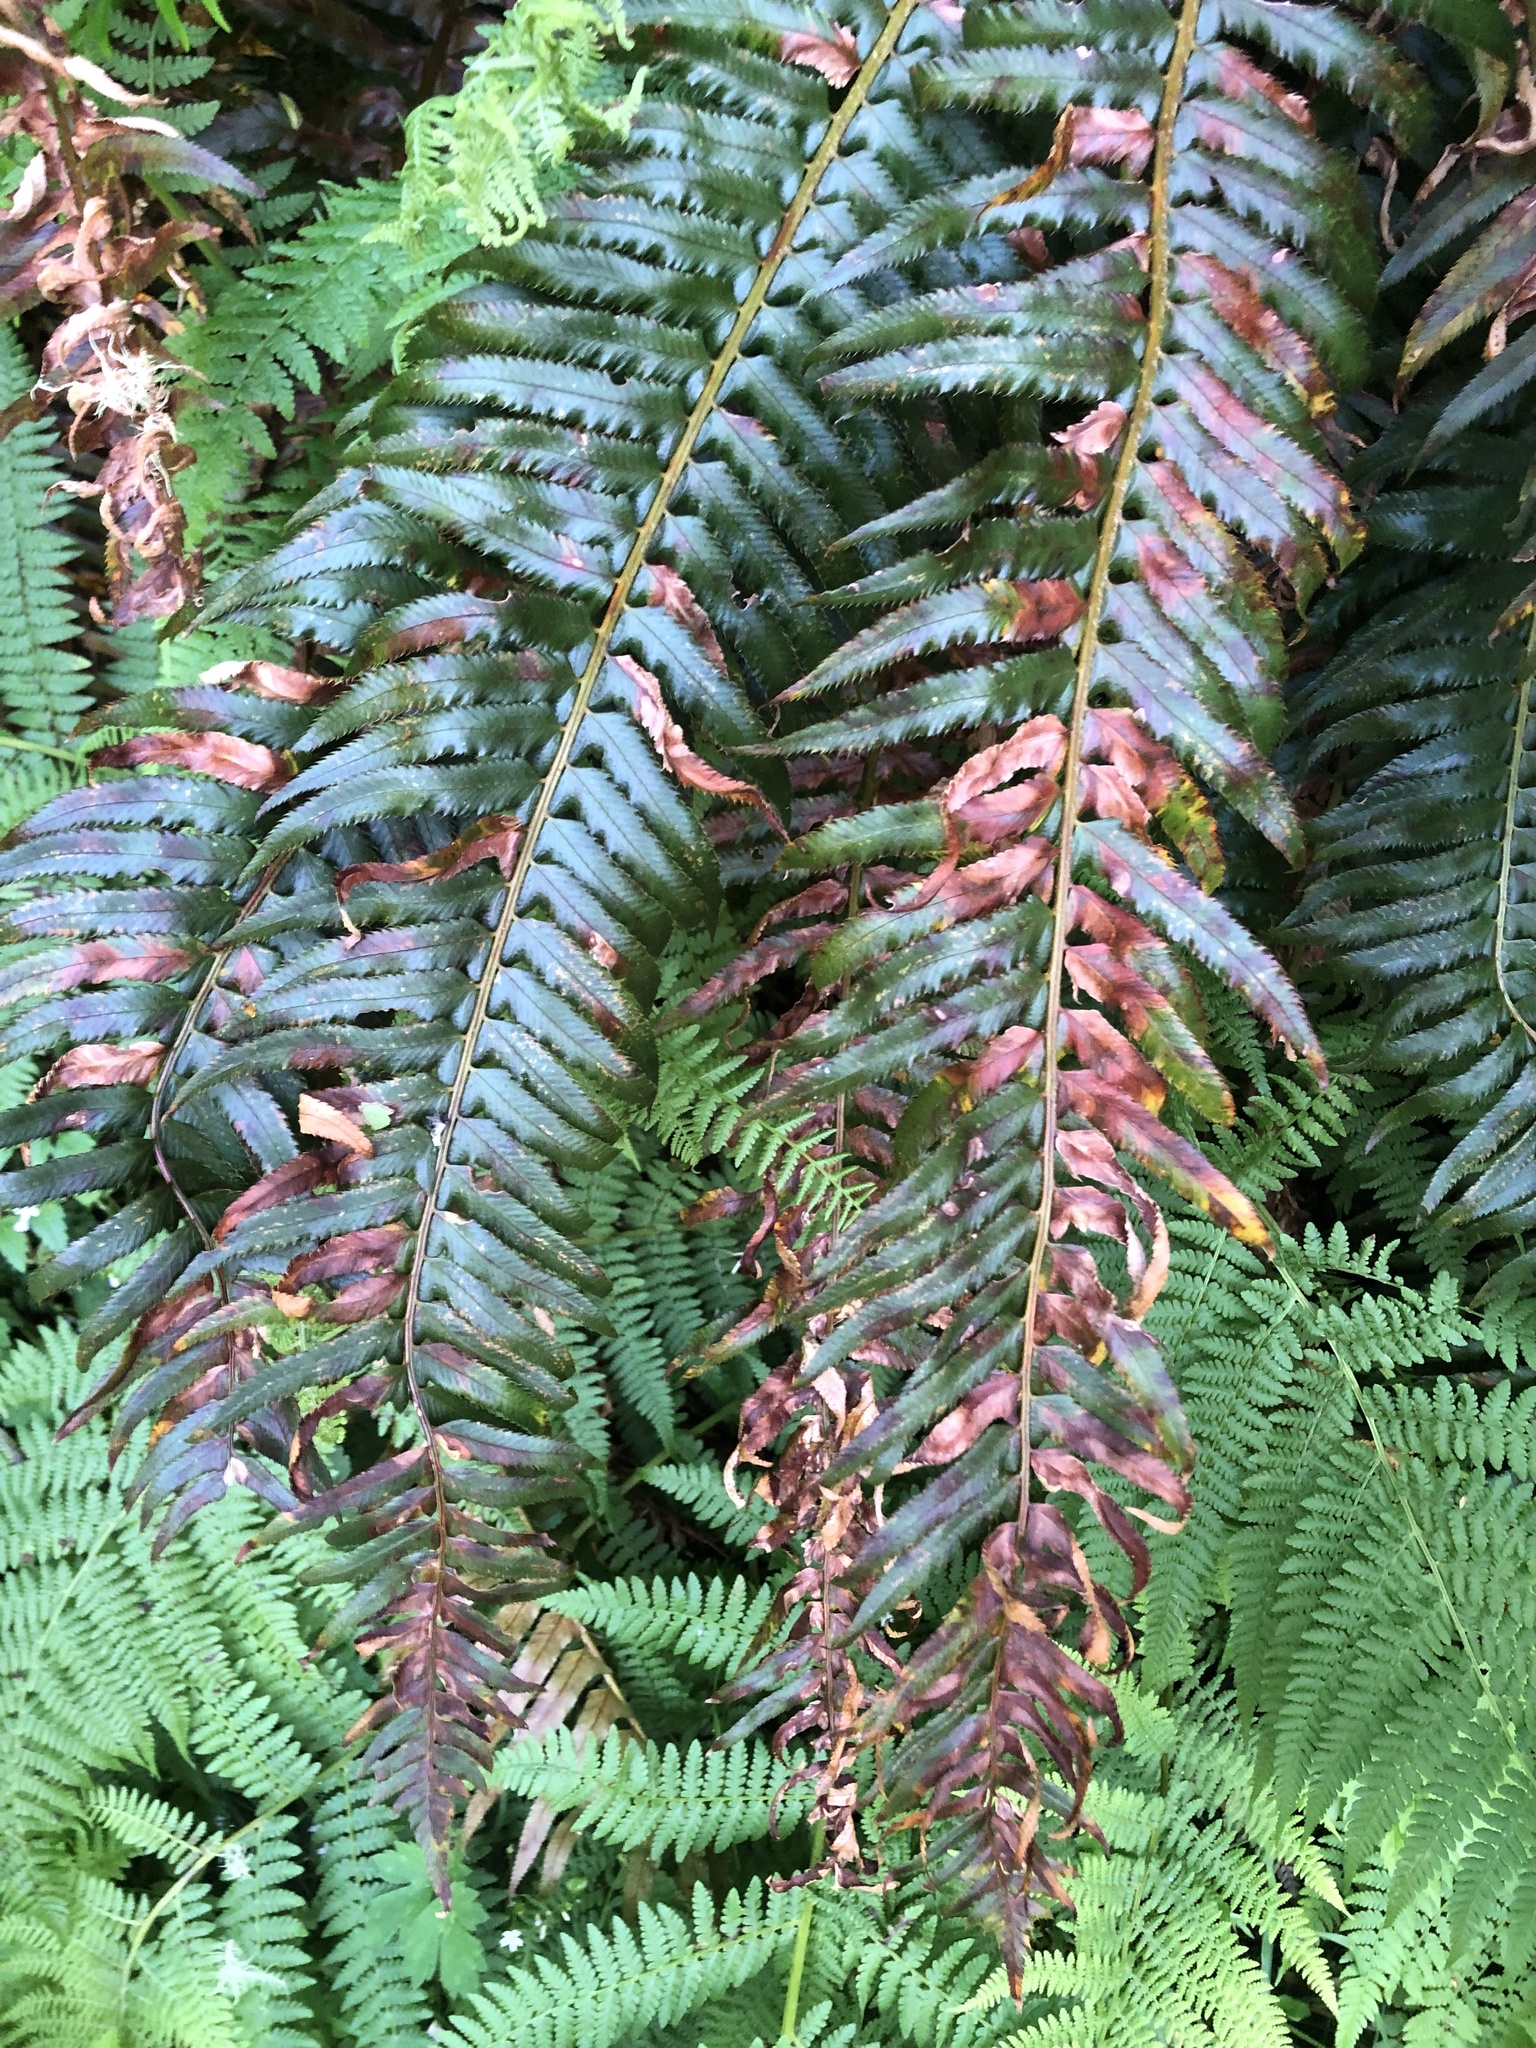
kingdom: Plantae
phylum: Tracheophyta
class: Polypodiopsida
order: Polypodiales
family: Dryopteridaceae
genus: Polystichum
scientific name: Polystichum munitum
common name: Western sword-fern
